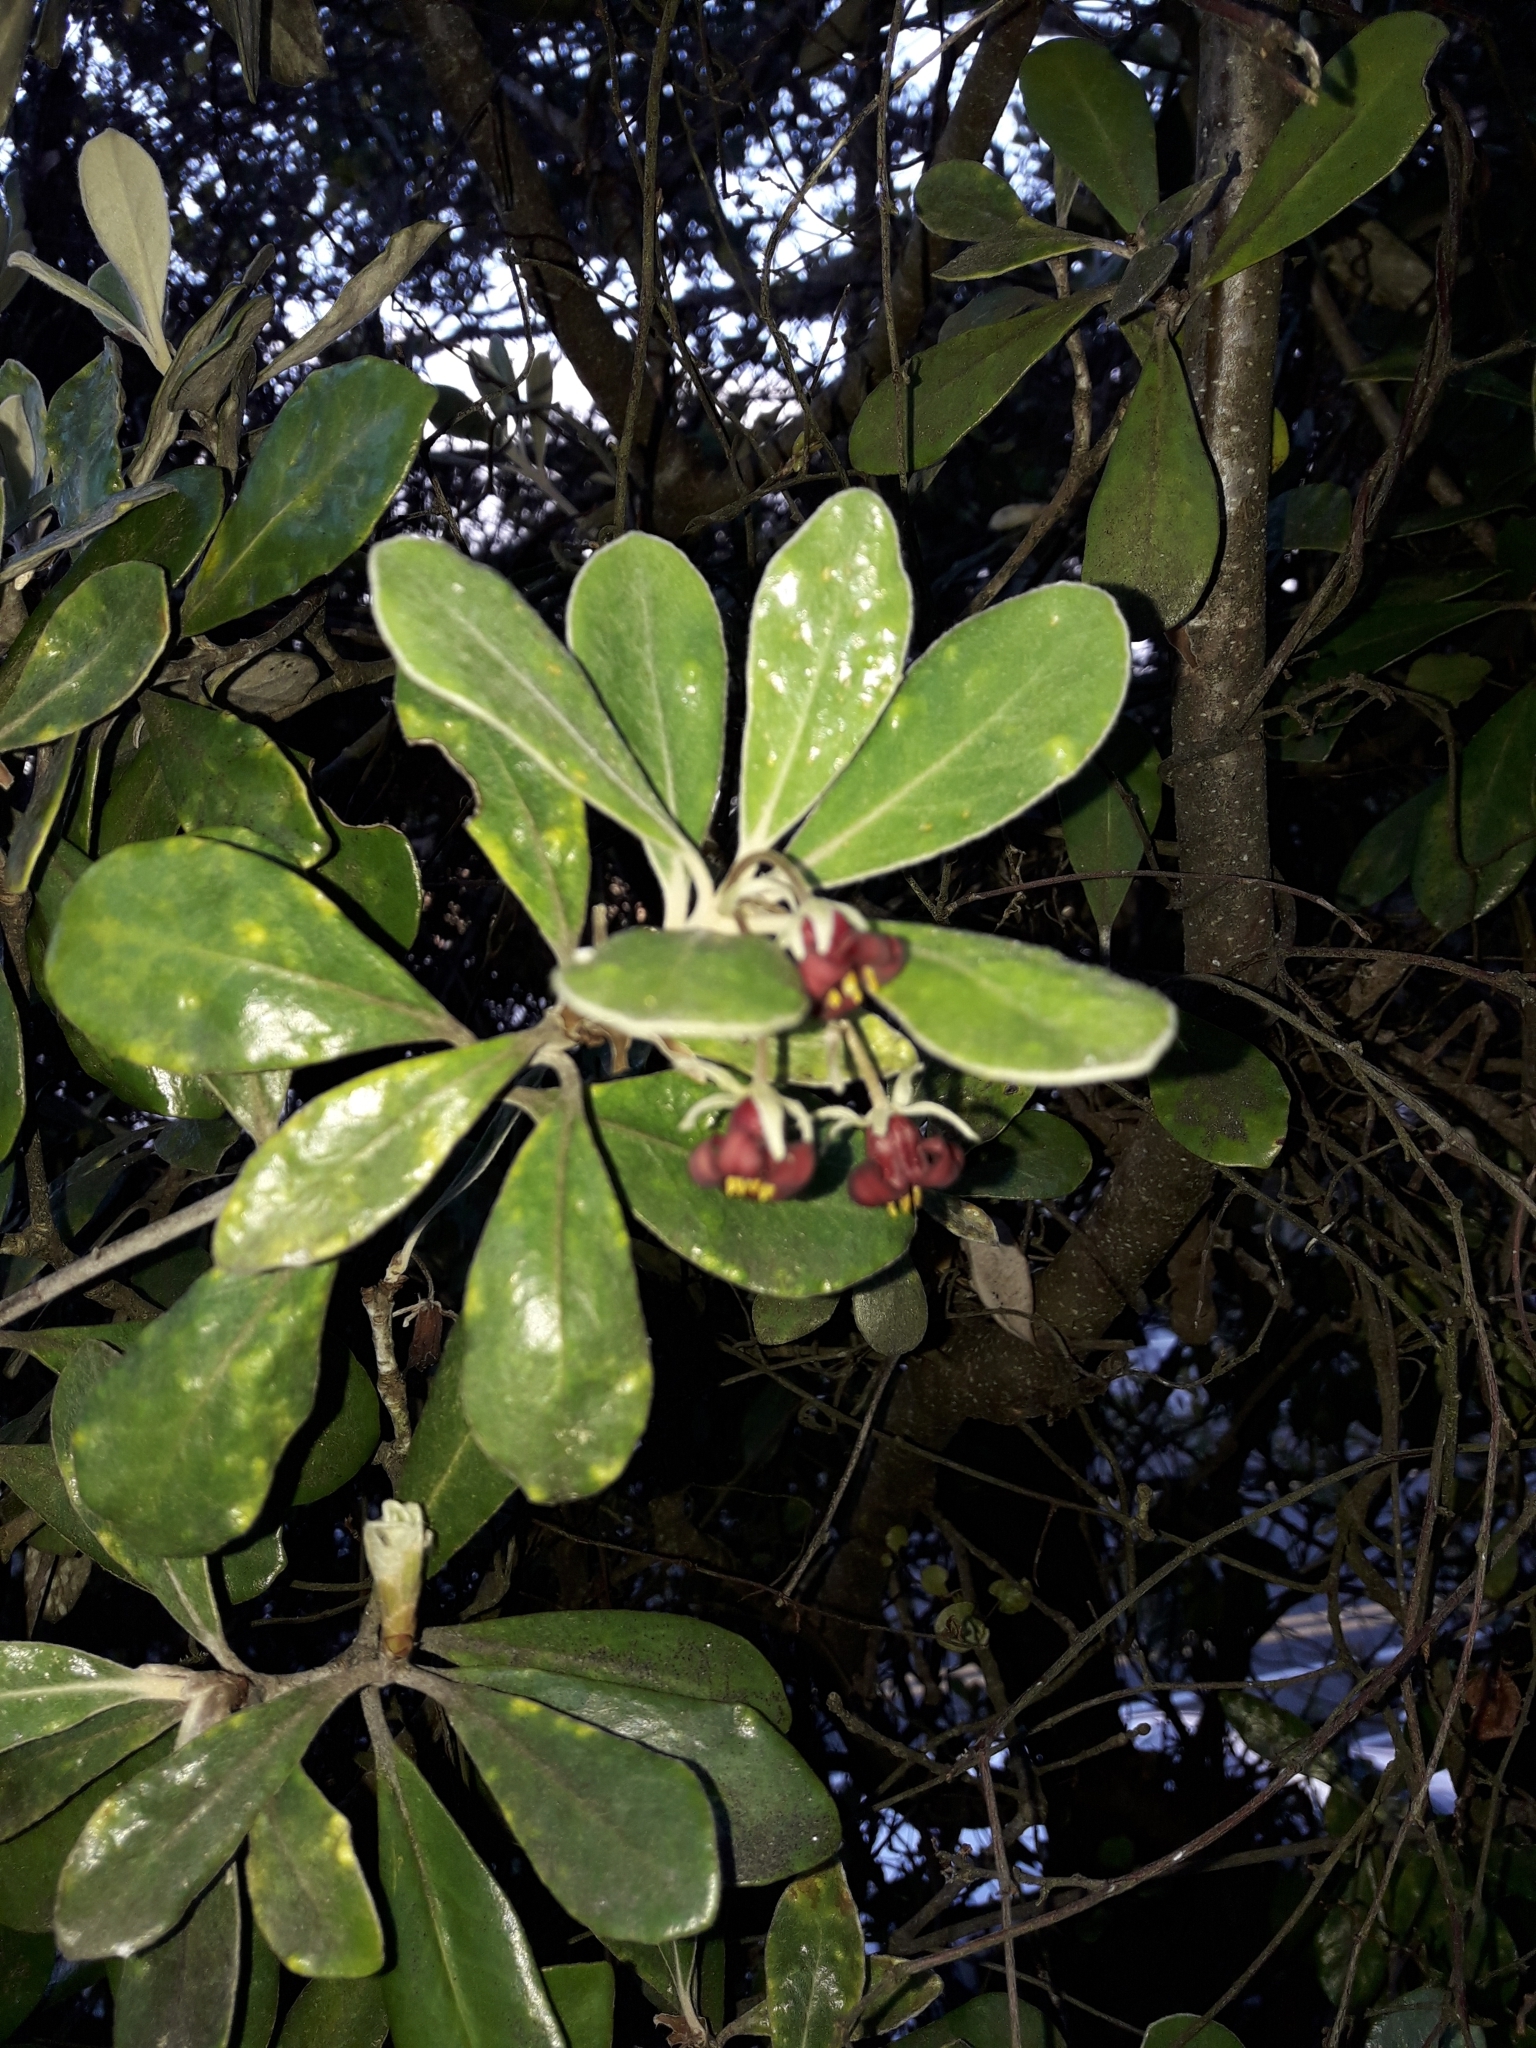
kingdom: Plantae
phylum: Tracheophyta
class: Magnoliopsida
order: Apiales
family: Pittosporaceae
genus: Pittosporum
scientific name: Pittosporum crassifolium
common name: Karo
